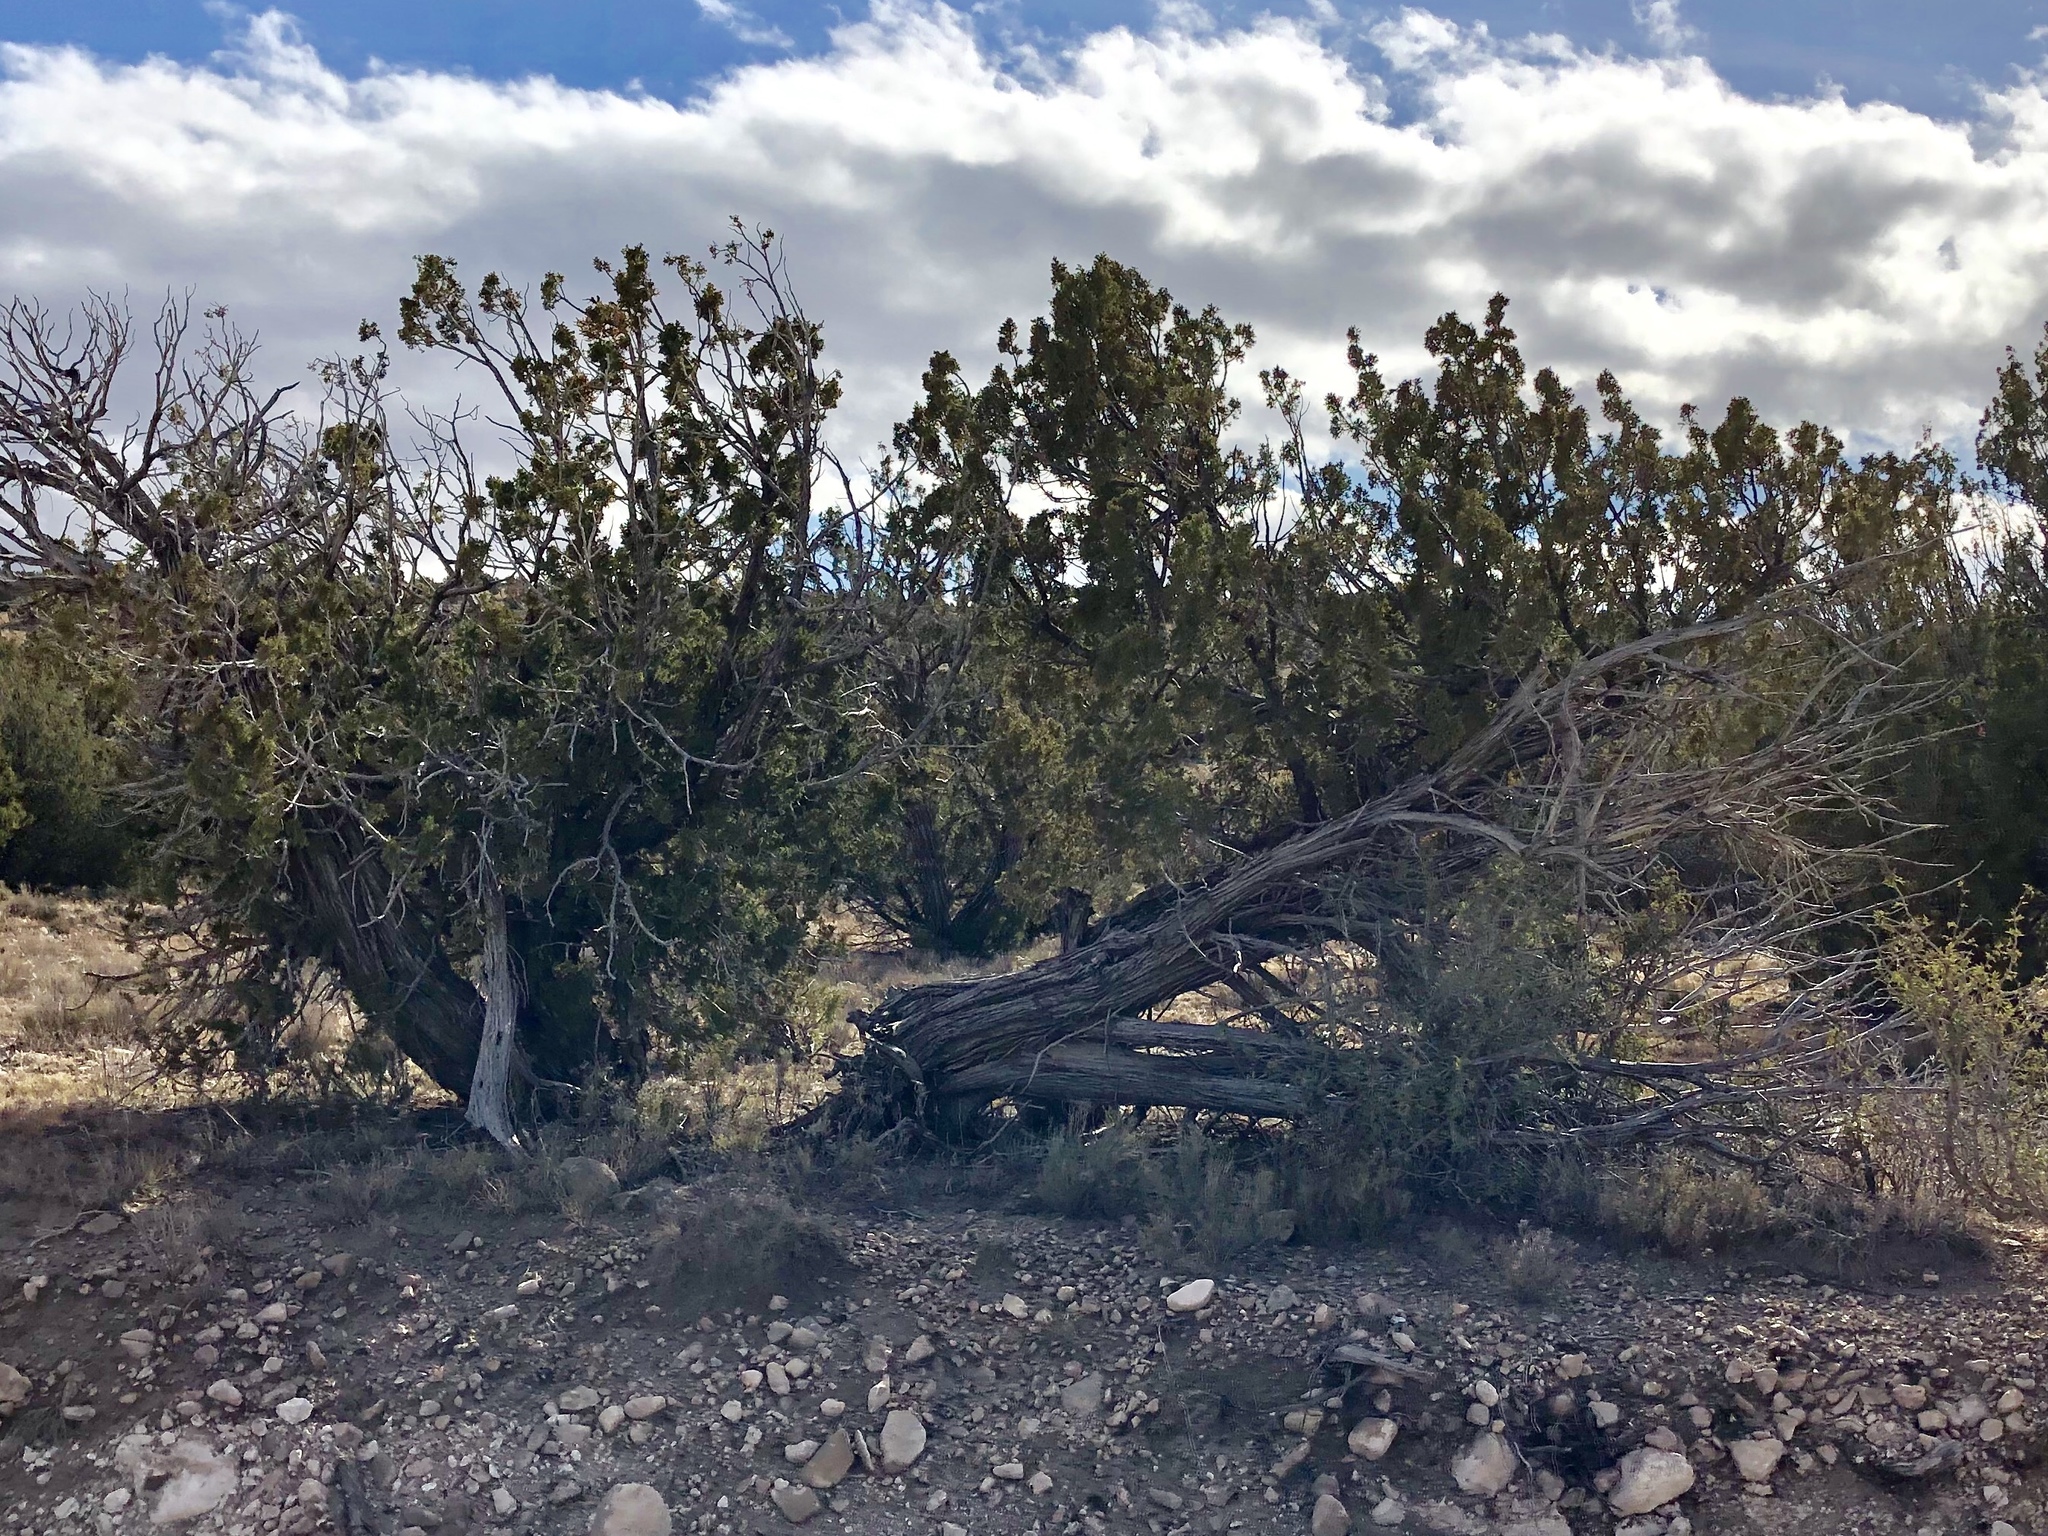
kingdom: Plantae
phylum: Tracheophyta
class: Pinopsida
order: Pinales
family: Cupressaceae
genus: Juniperus
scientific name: Juniperus monosperma
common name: One-seed juniper
